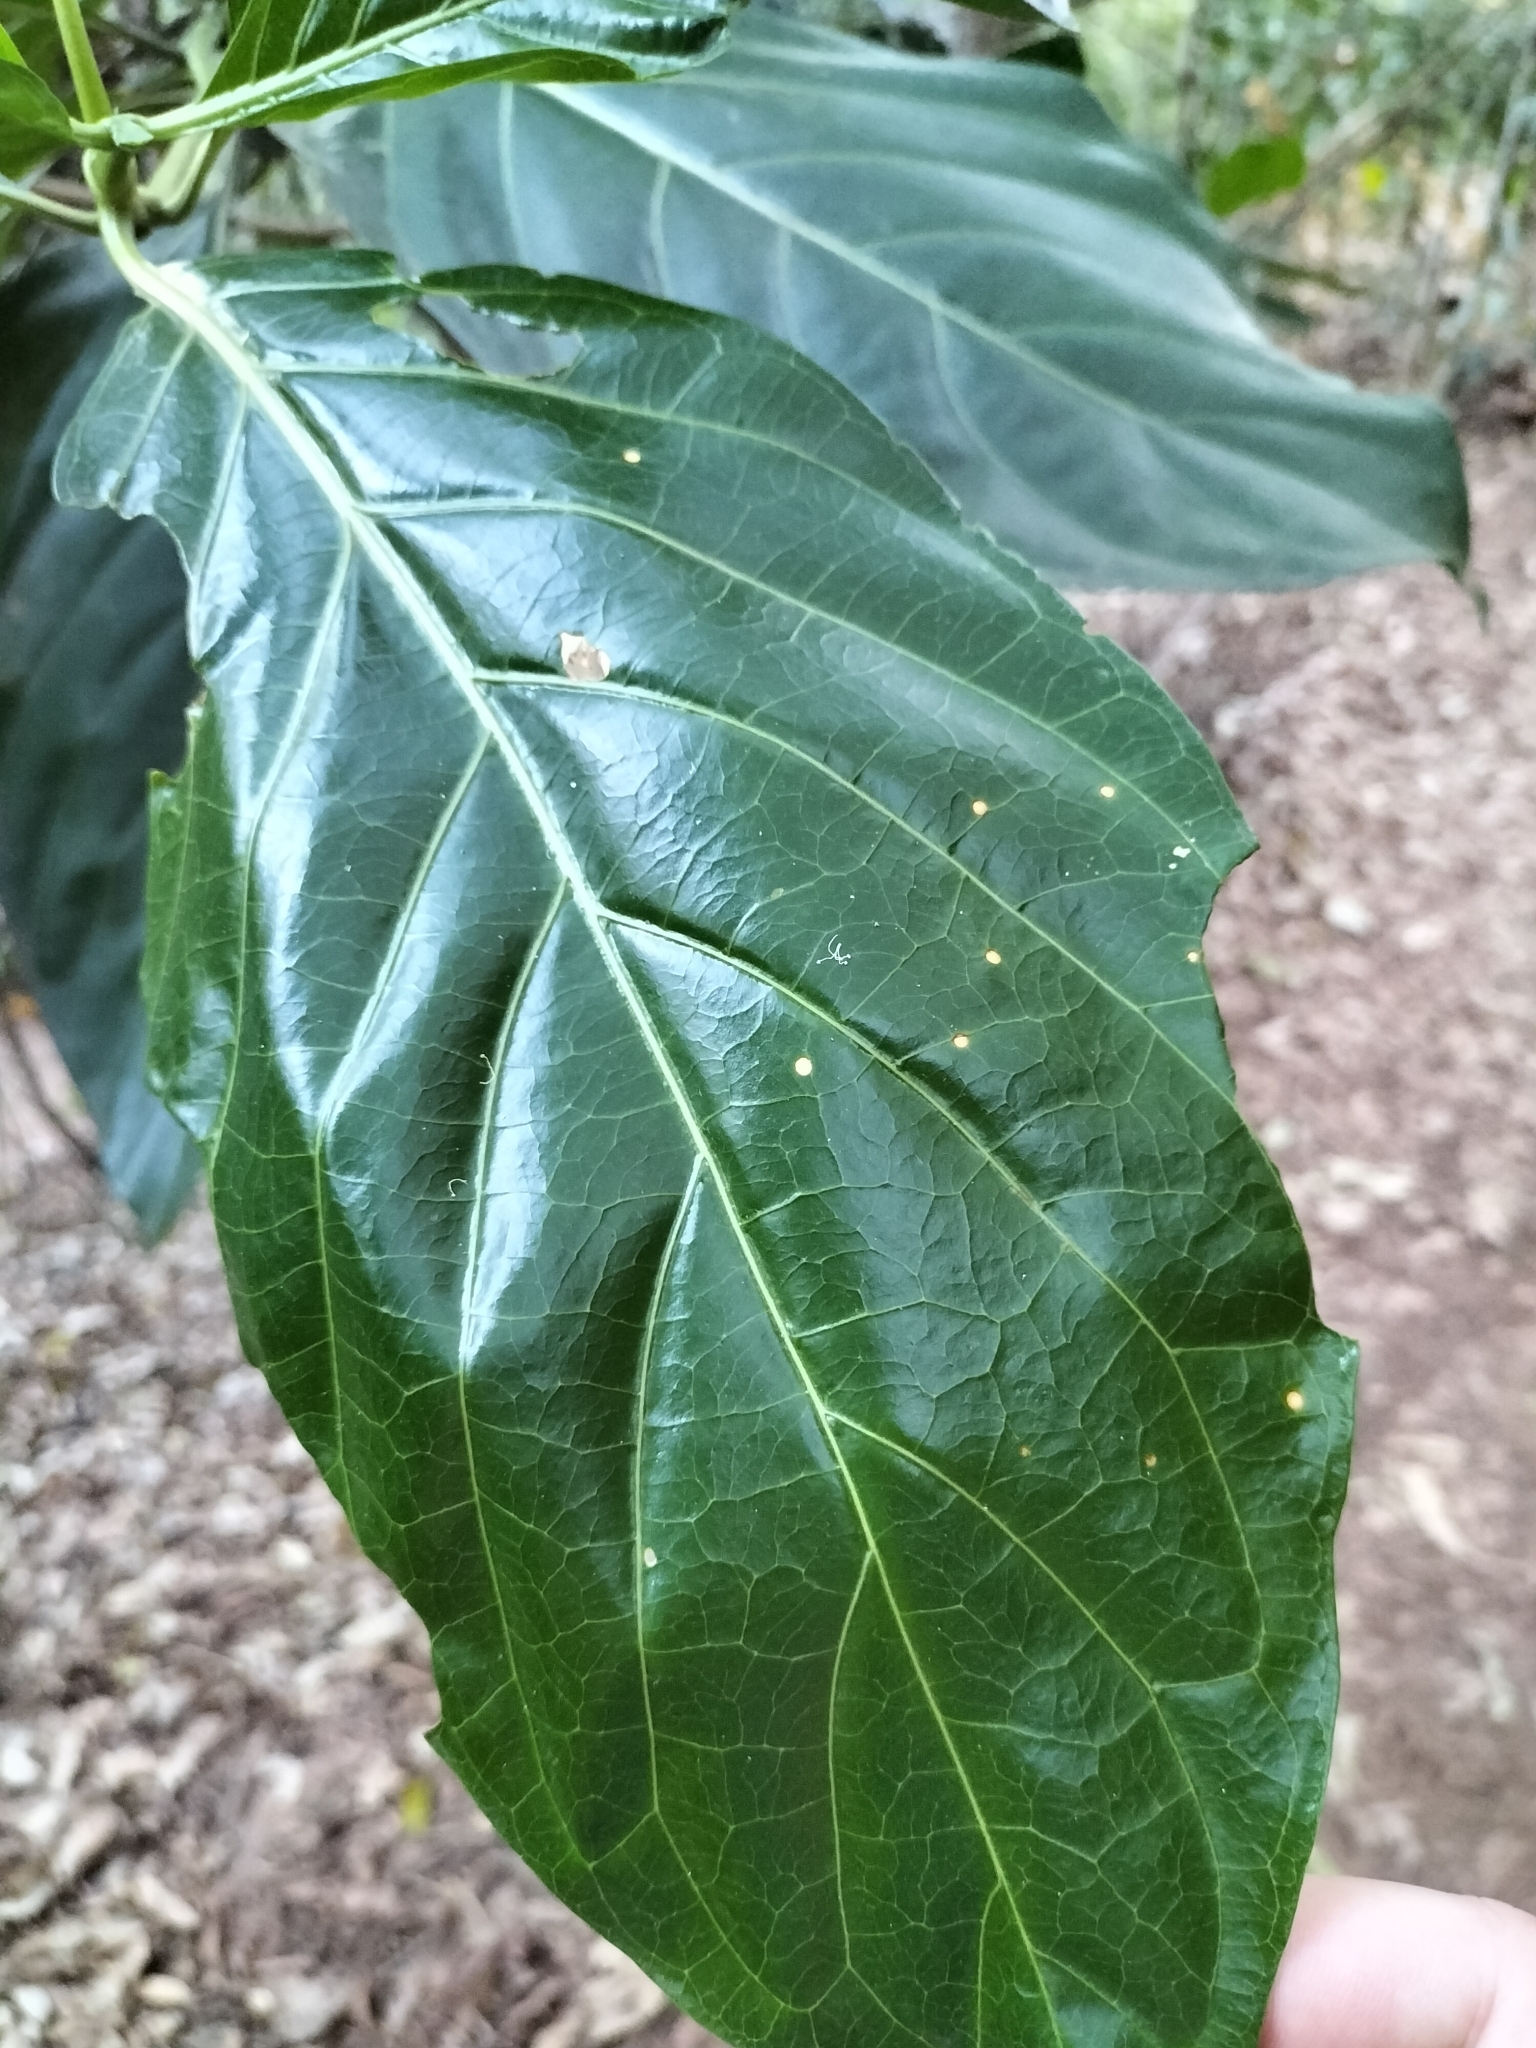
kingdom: Plantae
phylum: Tracheophyta
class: Magnoliopsida
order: Gentianales
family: Rubiaceae
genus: Morinda
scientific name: Morinda citrifolia
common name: Indian-mulberry
